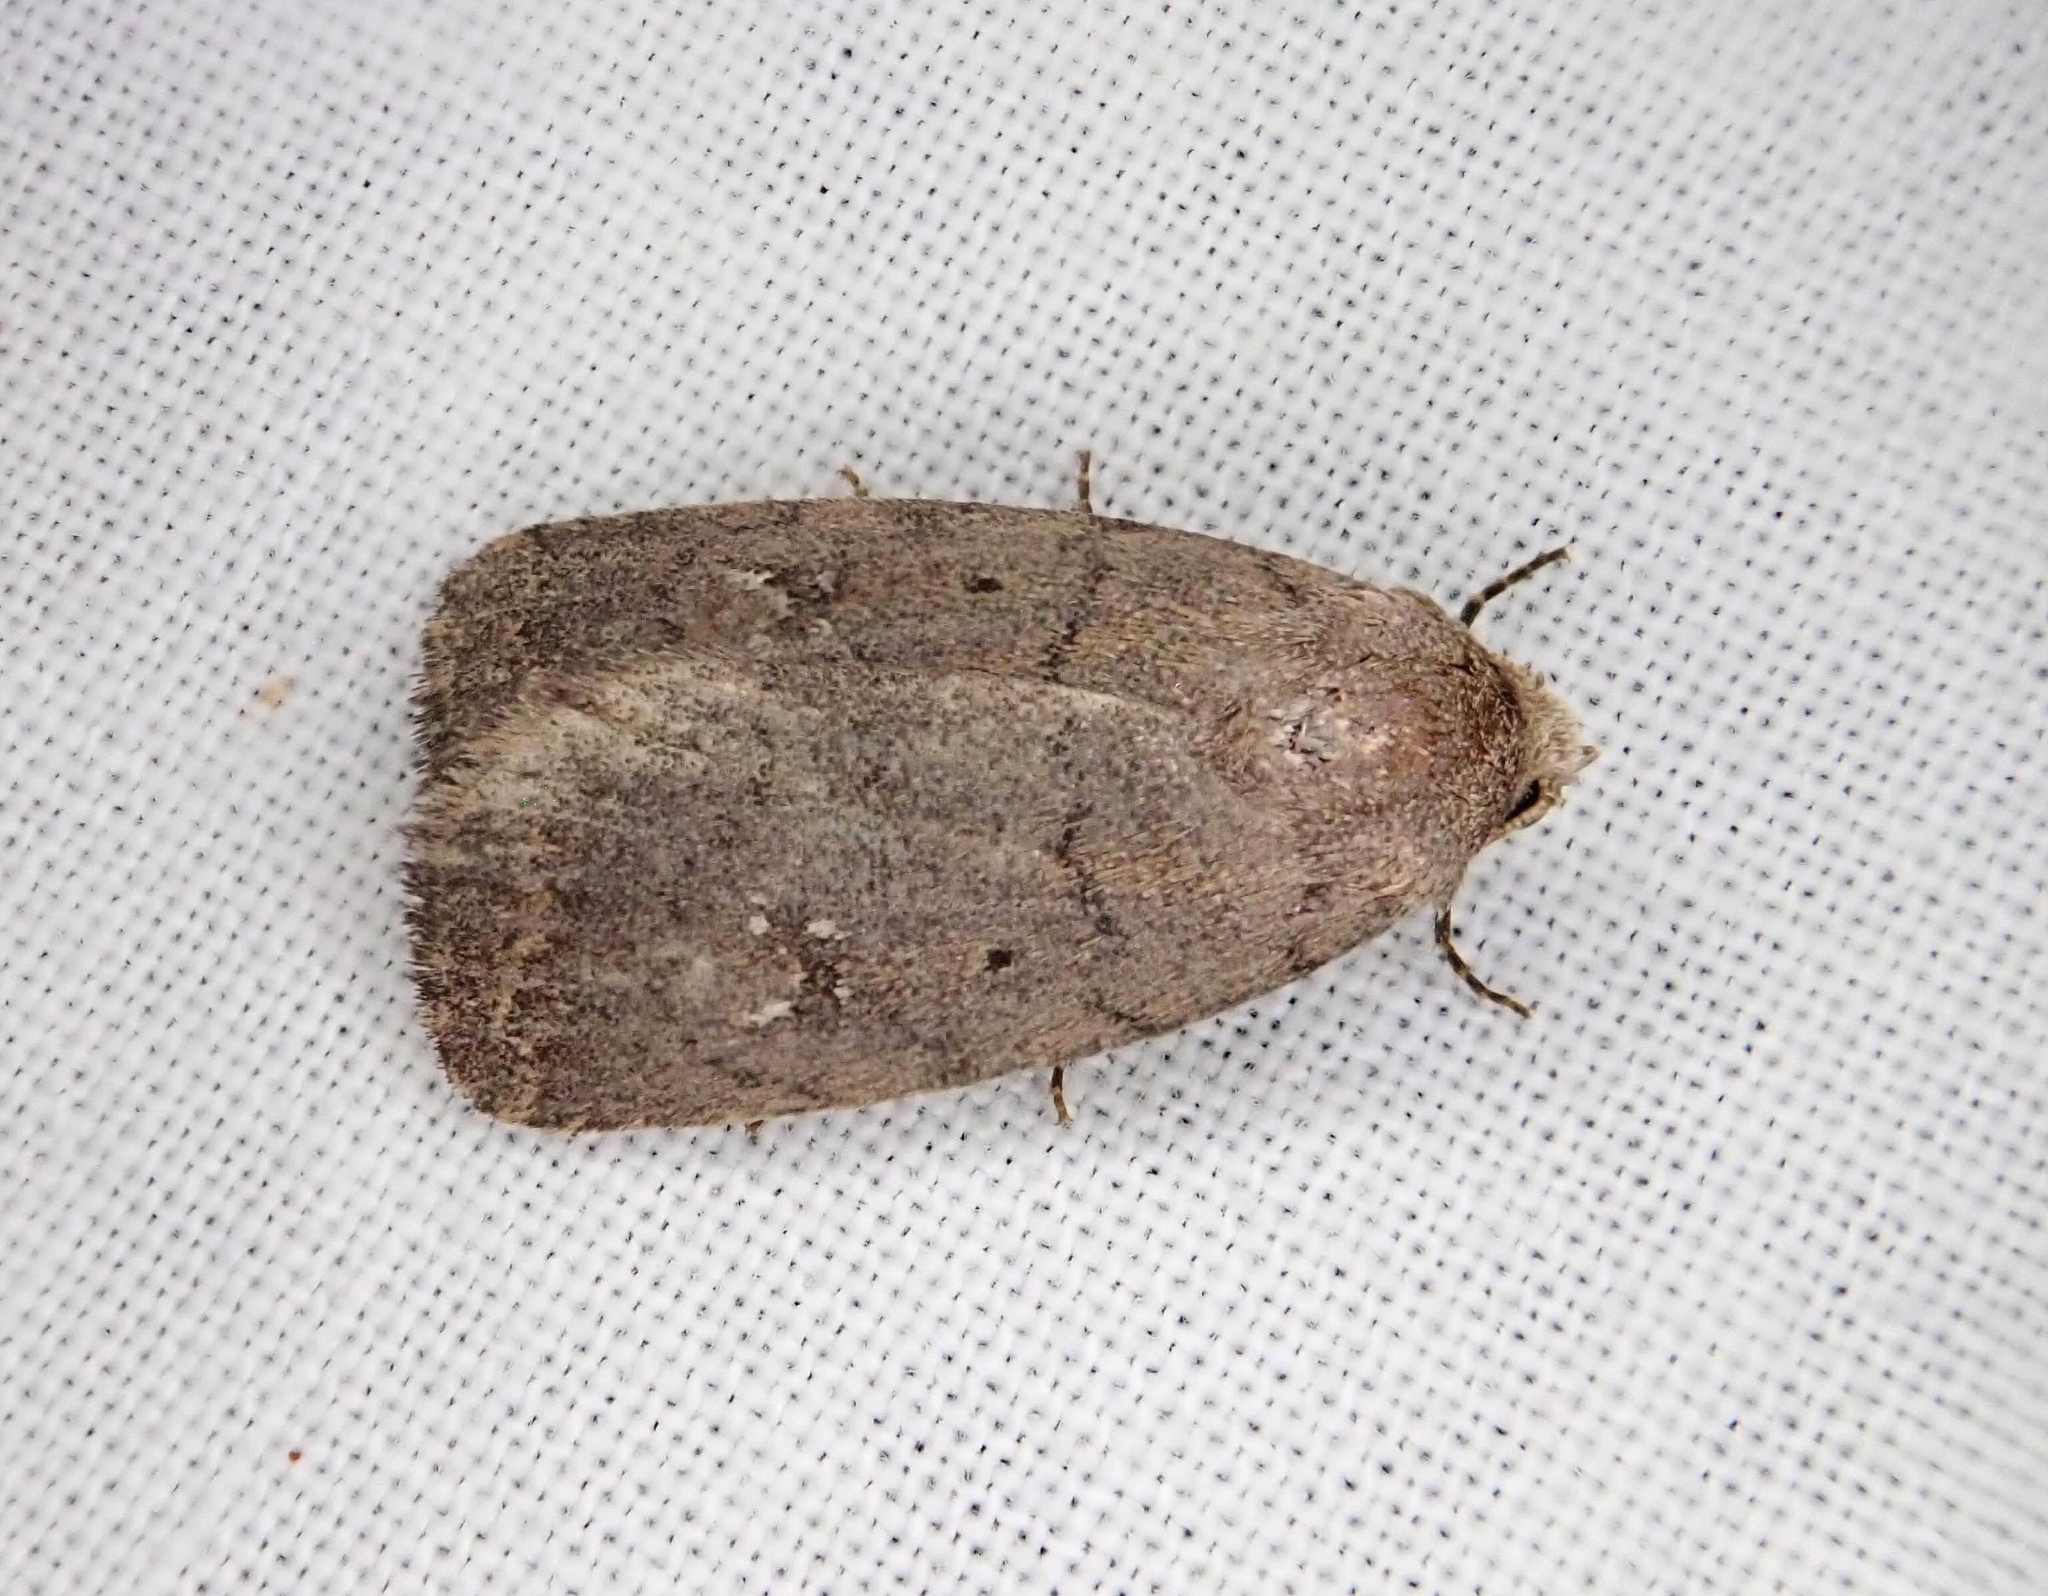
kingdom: Animalia
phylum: Arthropoda
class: Insecta
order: Lepidoptera
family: Noctuidae
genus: Athetis
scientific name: Athetis tarda
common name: Slowpoke moth
